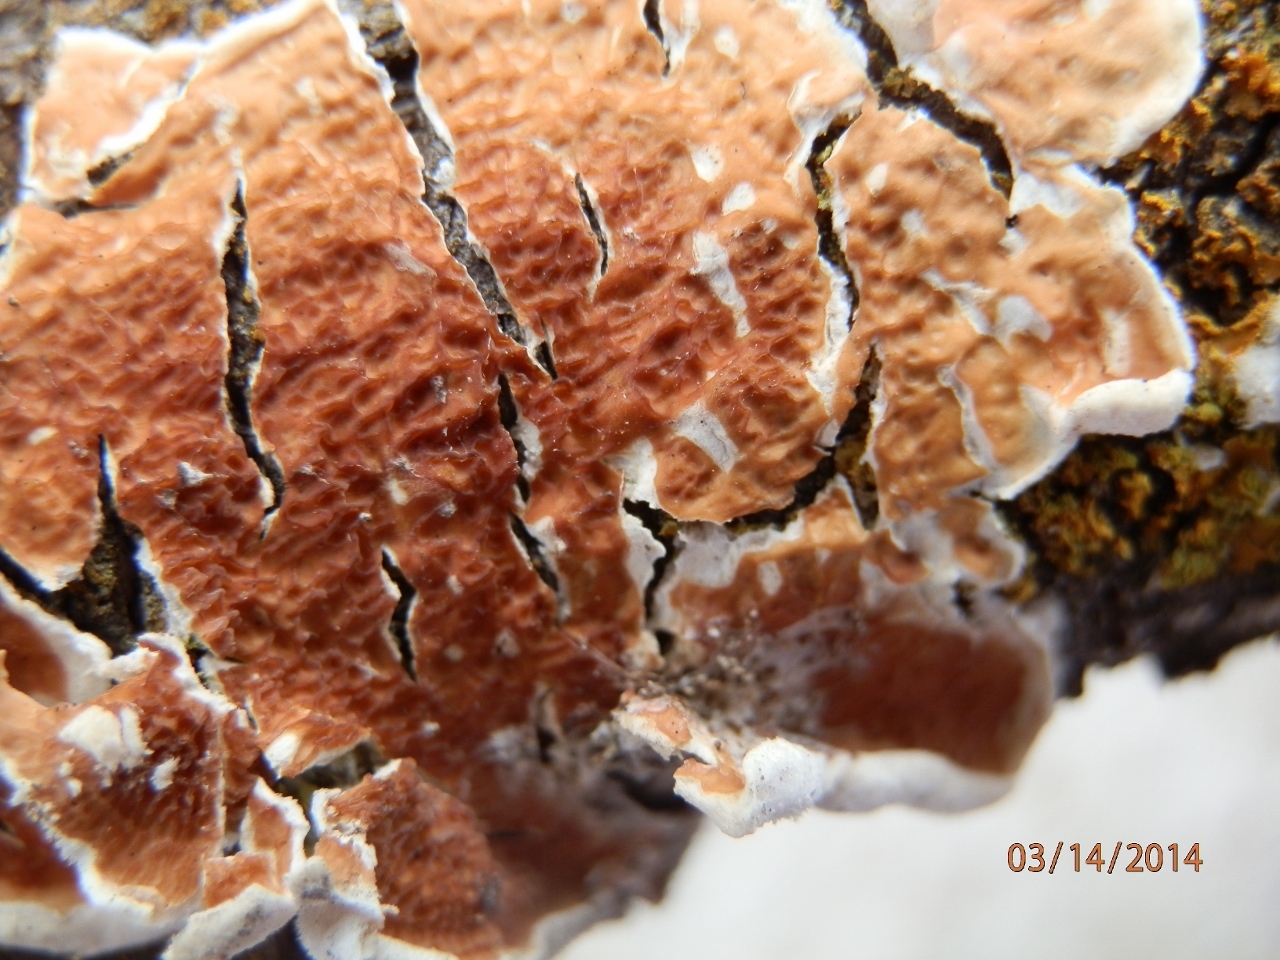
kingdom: Fungi
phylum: Basidiomycota
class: Agaricomycetes
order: Polyporales
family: Irpicaceae
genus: Byssomerulius
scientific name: Byssomerulius corium
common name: Netted crust
